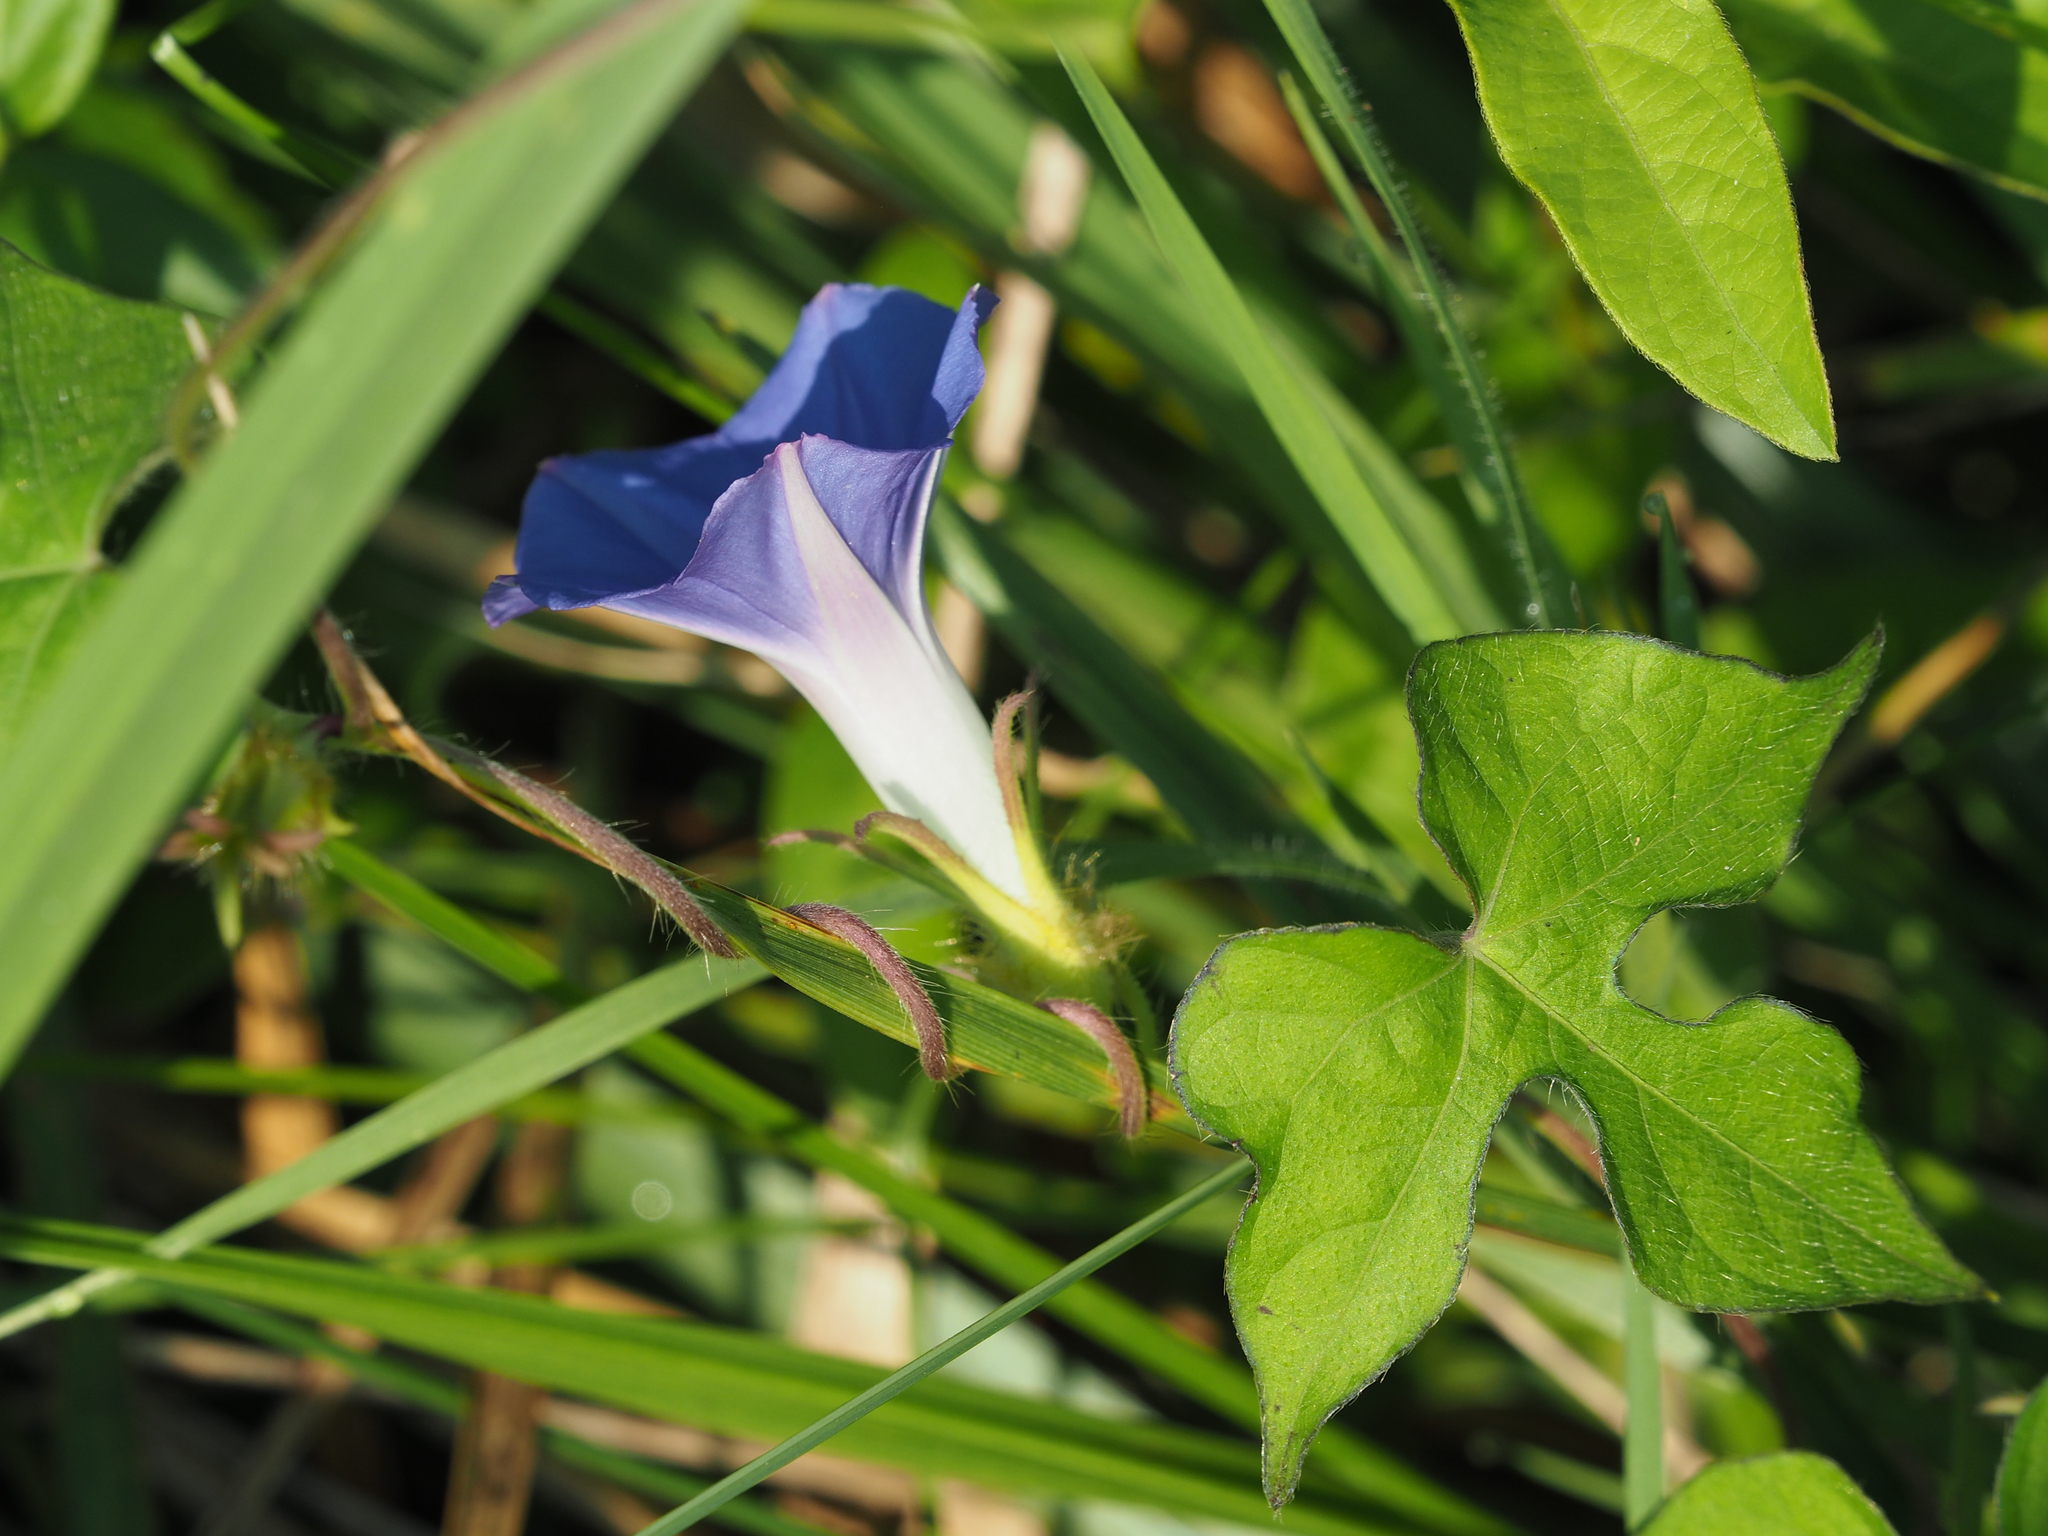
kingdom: Plantae
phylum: Tracheophyta
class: Magnoliopsida
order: Solanales
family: Convolvulaceae
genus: Ipomoea
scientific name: Ipomoea hederacea
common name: Ivy-leaved morning-glory
